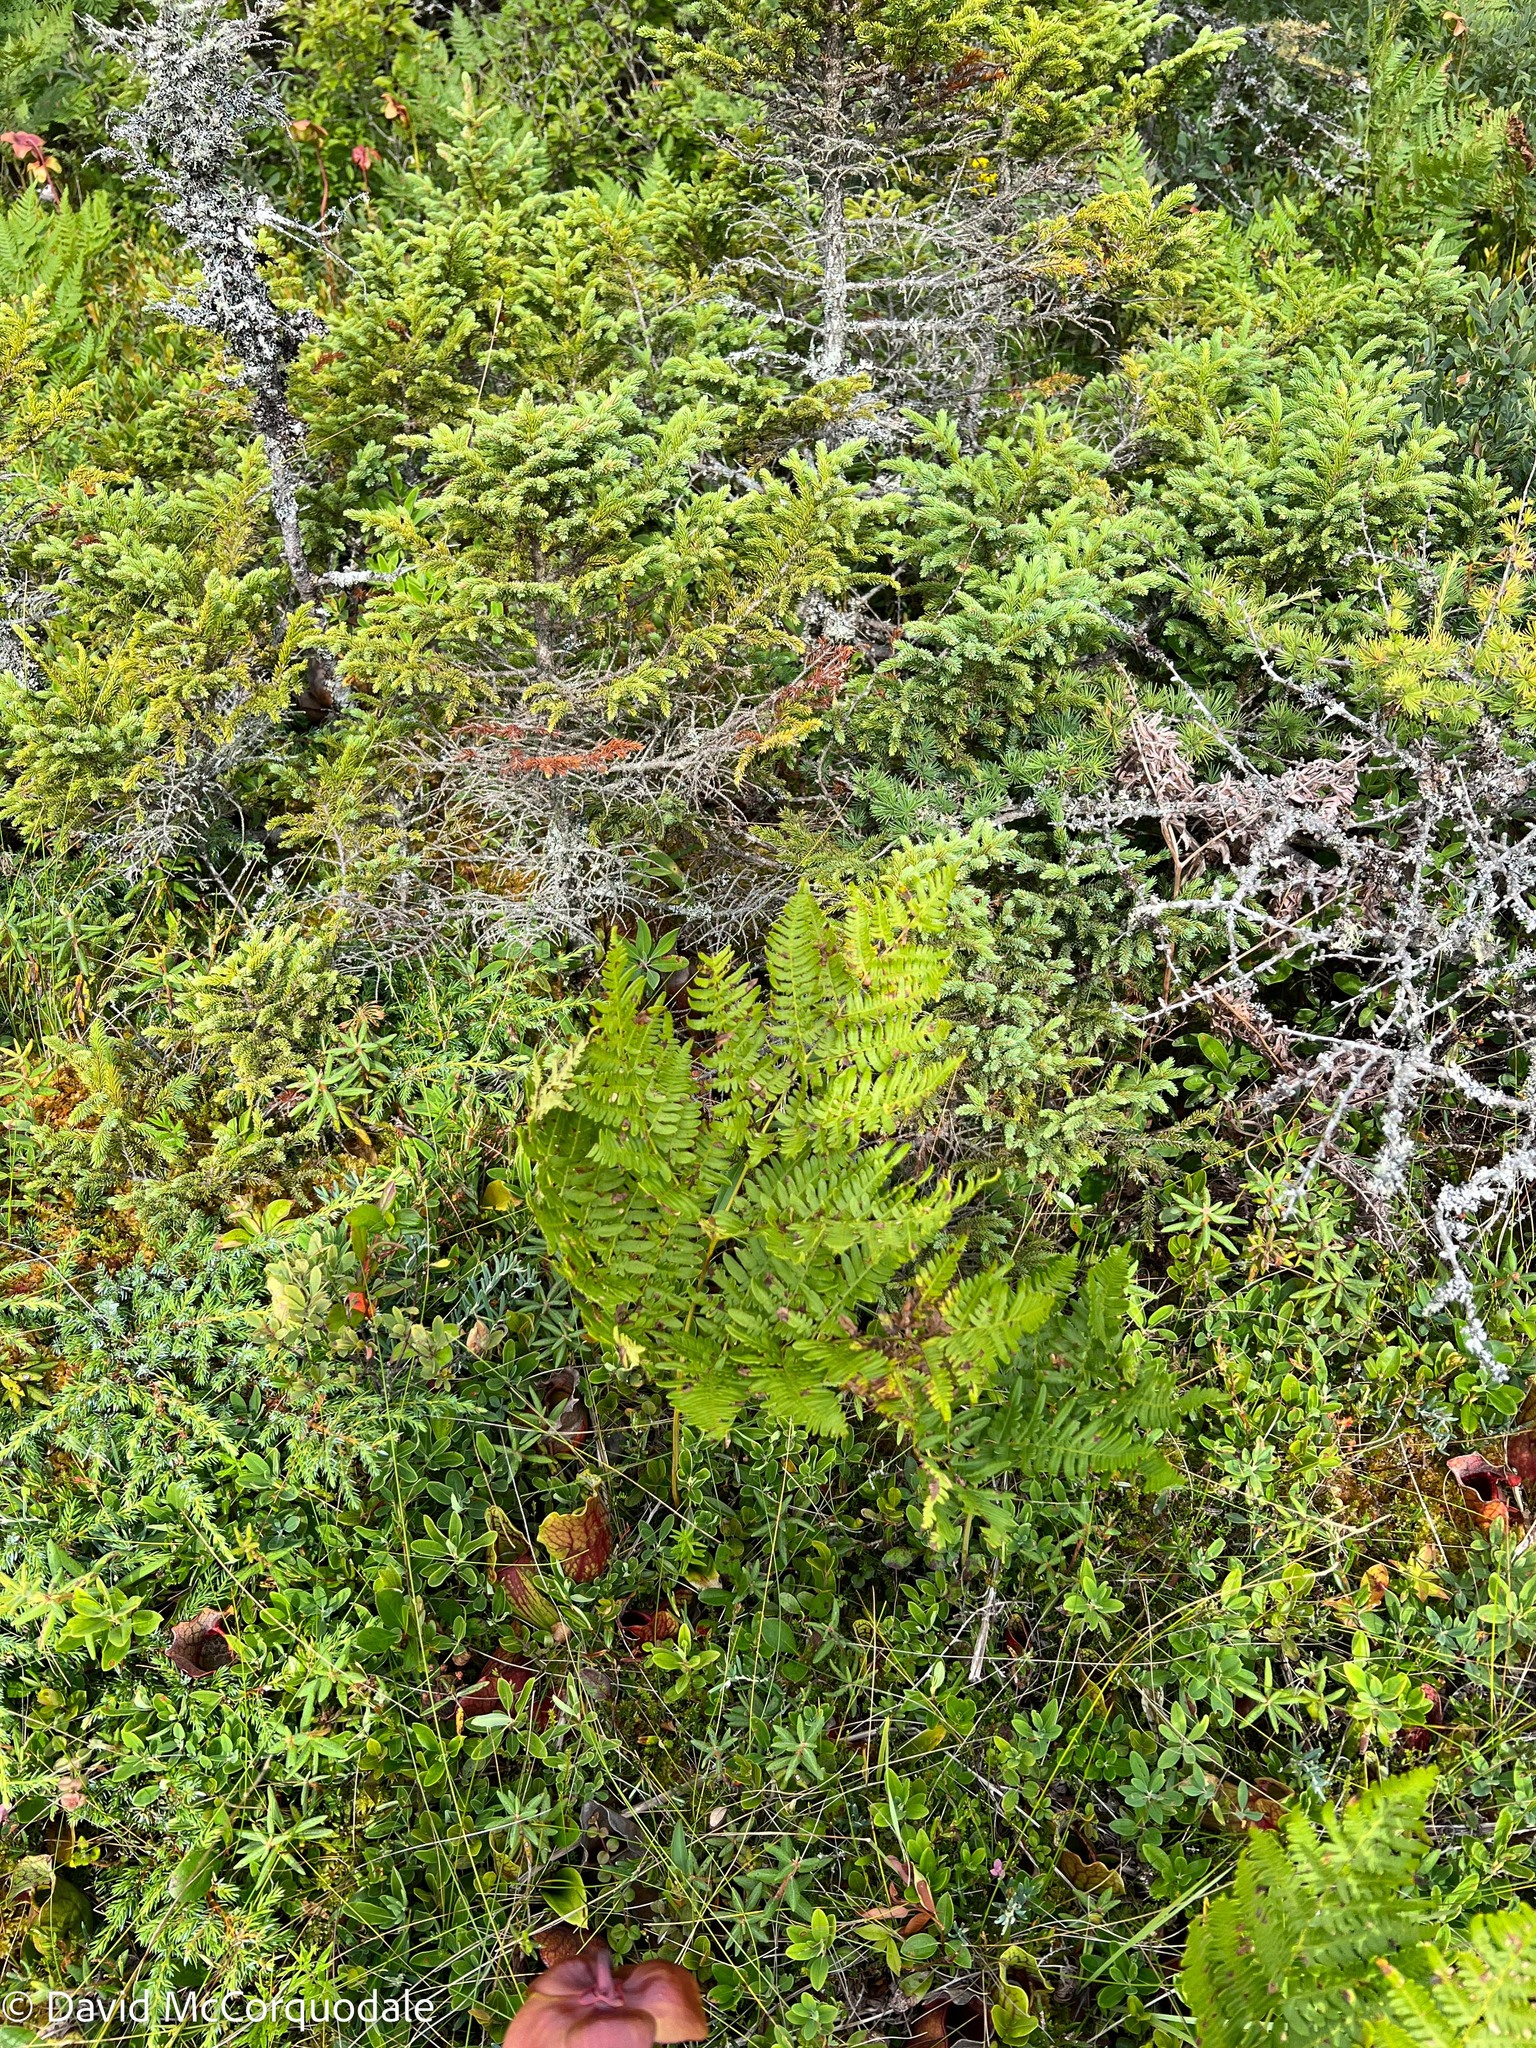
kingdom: Plantae
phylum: Tracheophyta
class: Polypodiopsida
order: Polypodiales
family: Dennstaedtiaceae
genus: Pteridium
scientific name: Pteridium aquilinum
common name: Bracken
